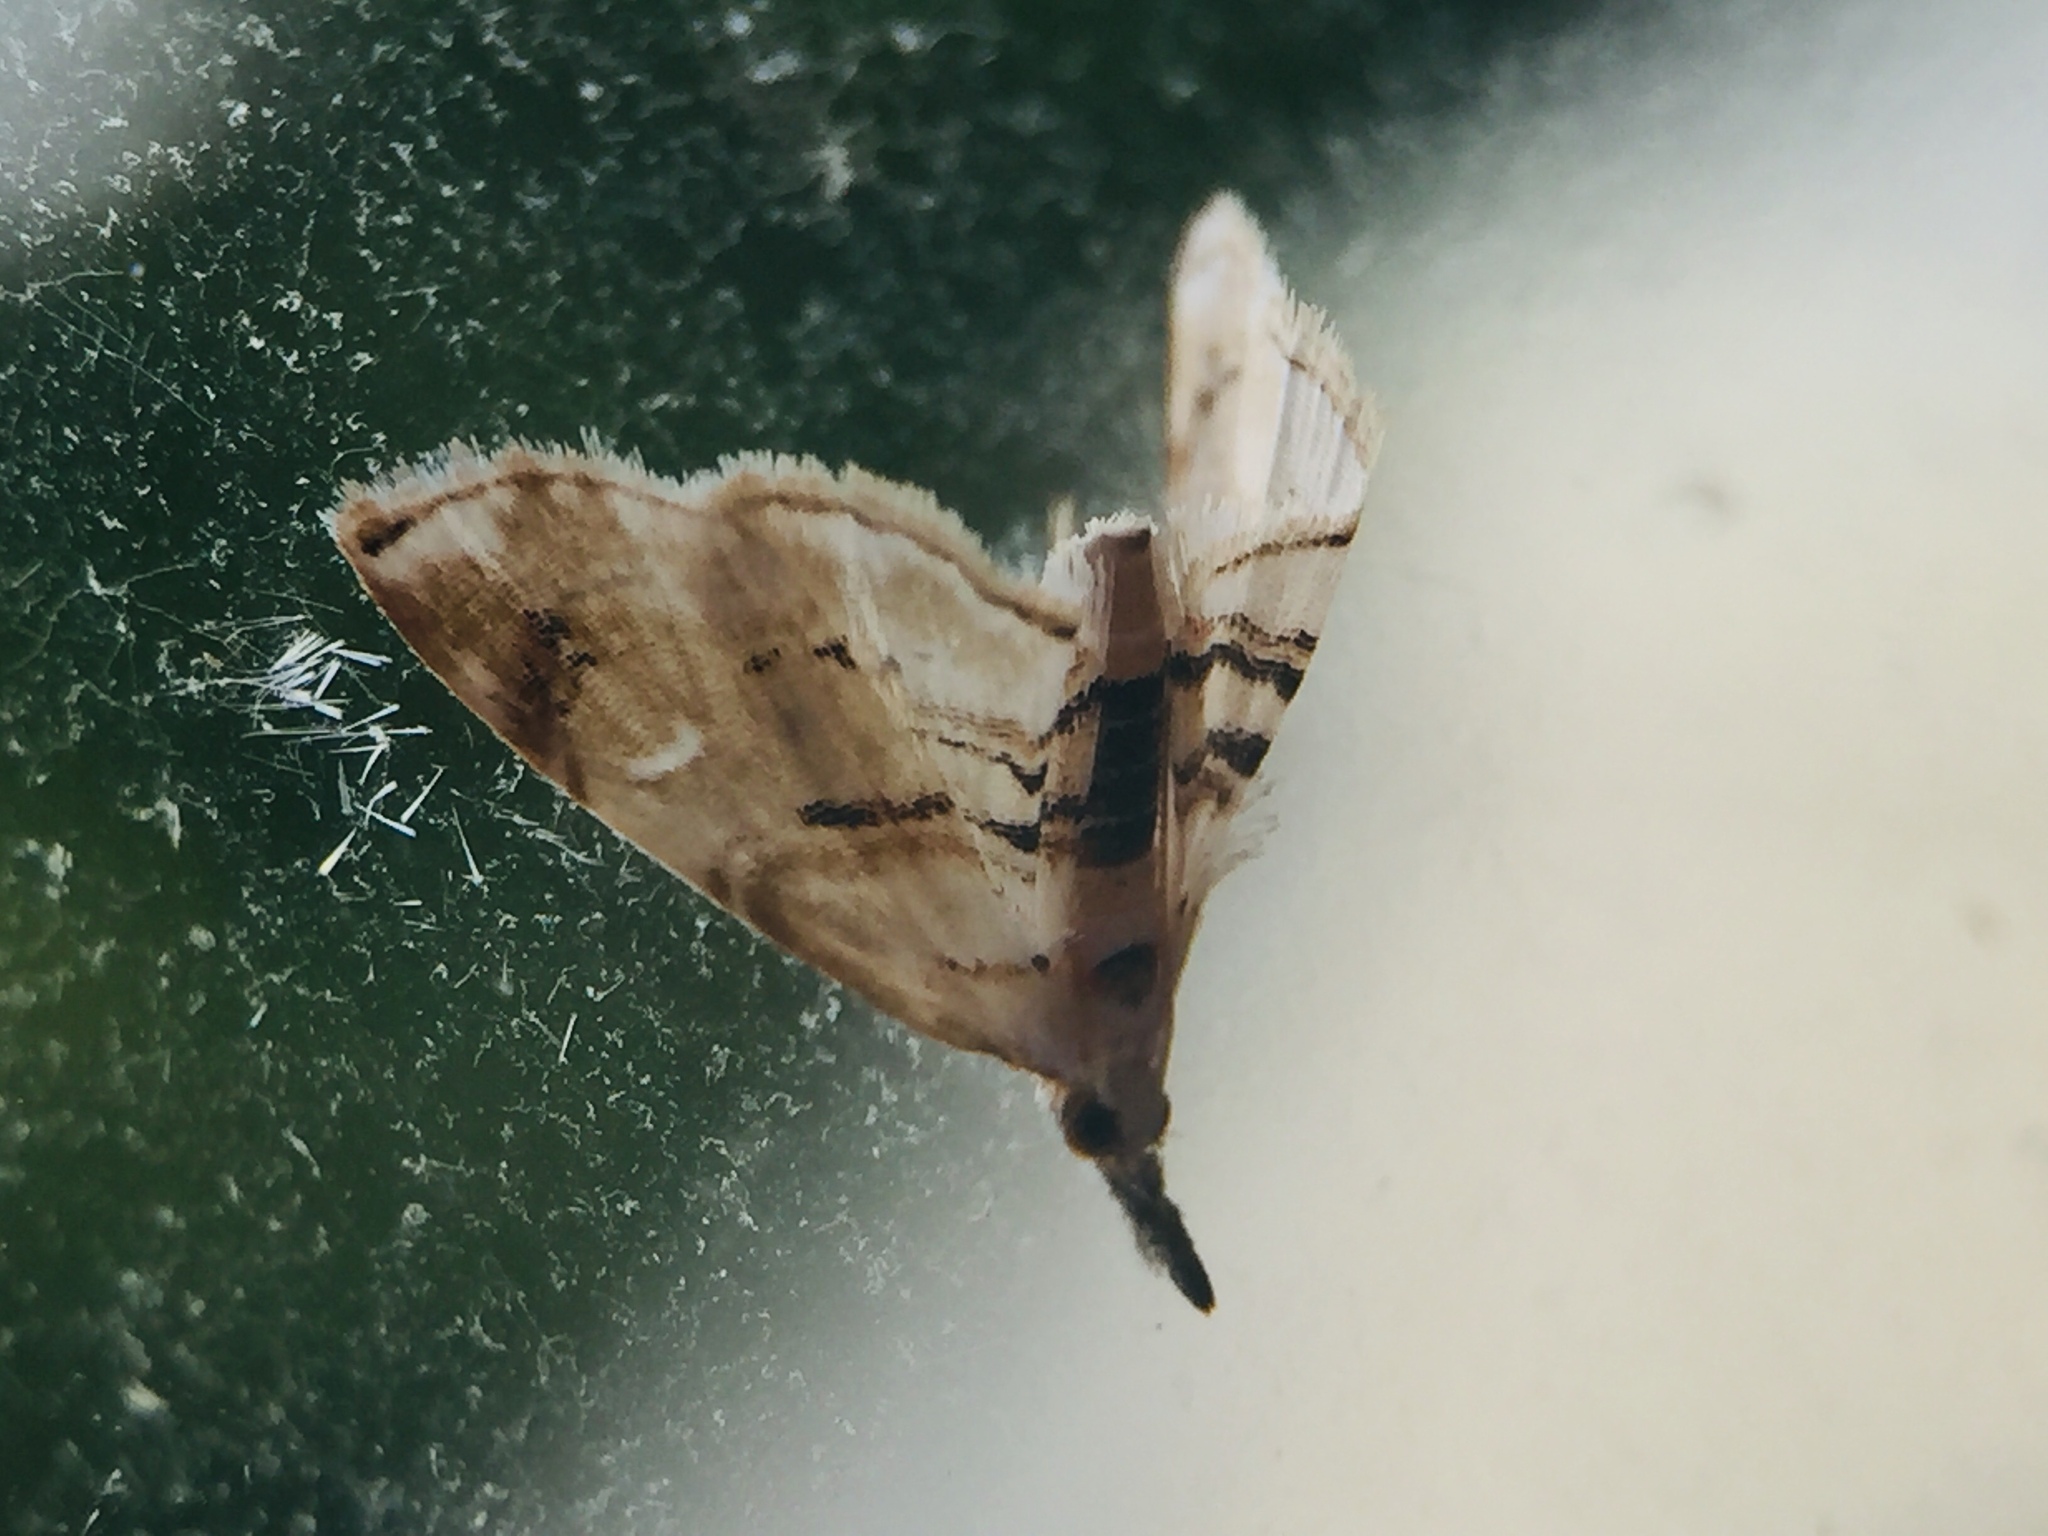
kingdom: Animalia
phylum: Arthropoda
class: Insecta
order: Lepidoptera
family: Crambidae
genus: Trichophysetis
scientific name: Trichophysetis
